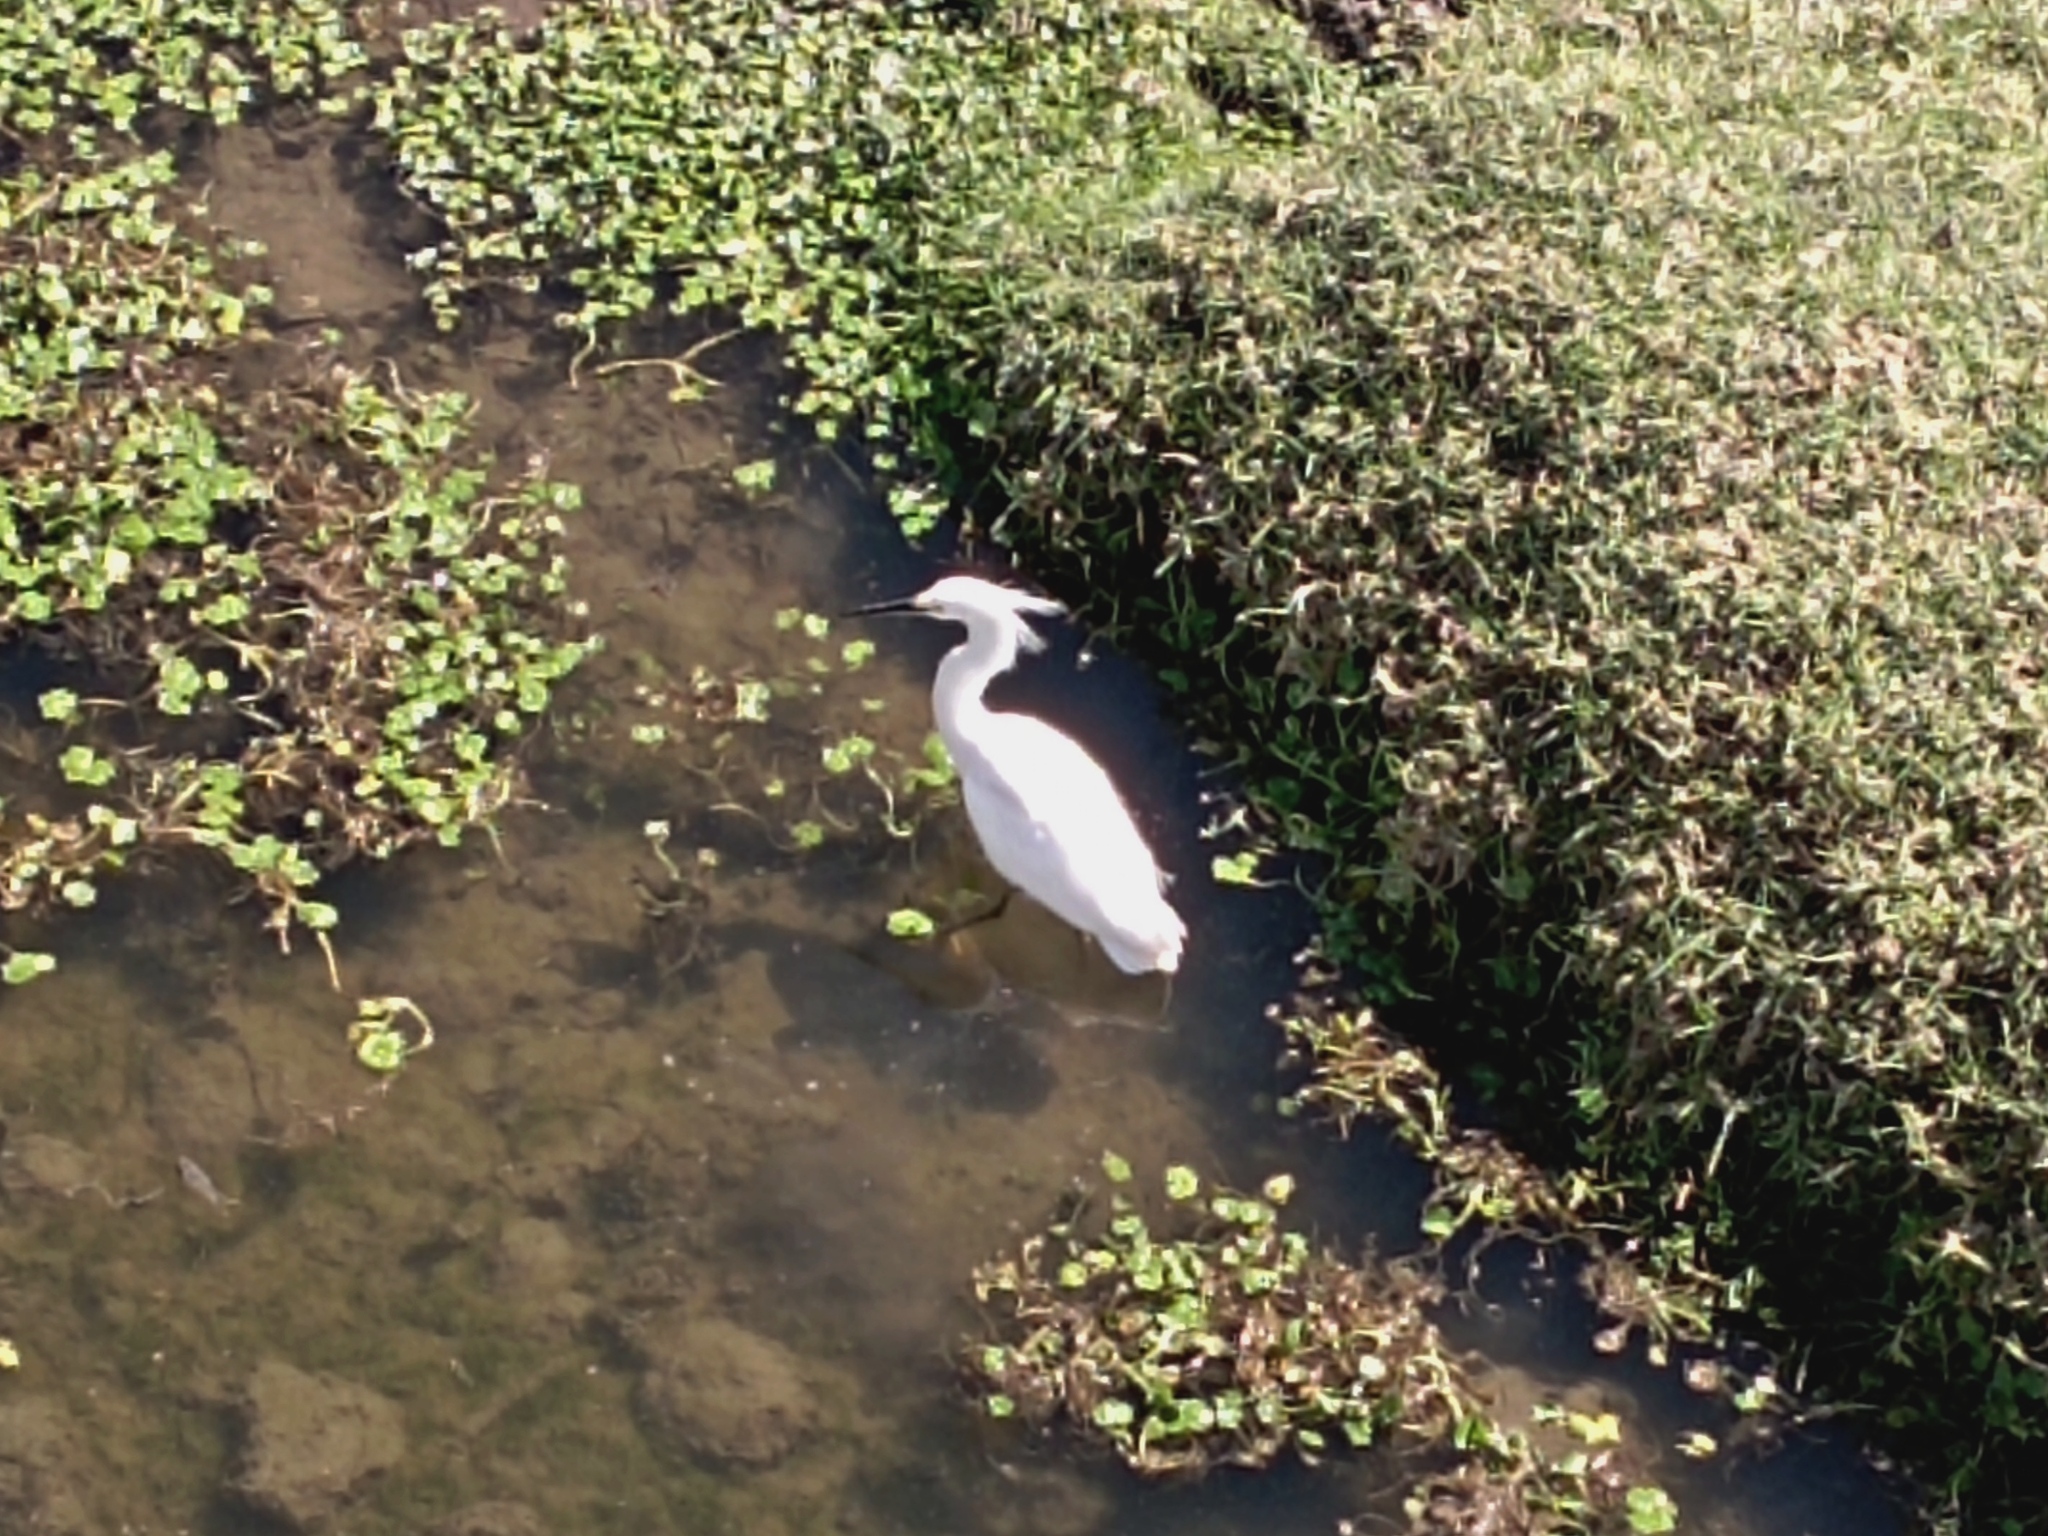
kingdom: Animalia
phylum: Chordata
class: Aves
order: Pelecaniformes
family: Ardeidae
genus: Egretta
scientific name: Egretta thula
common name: Snowy egret
